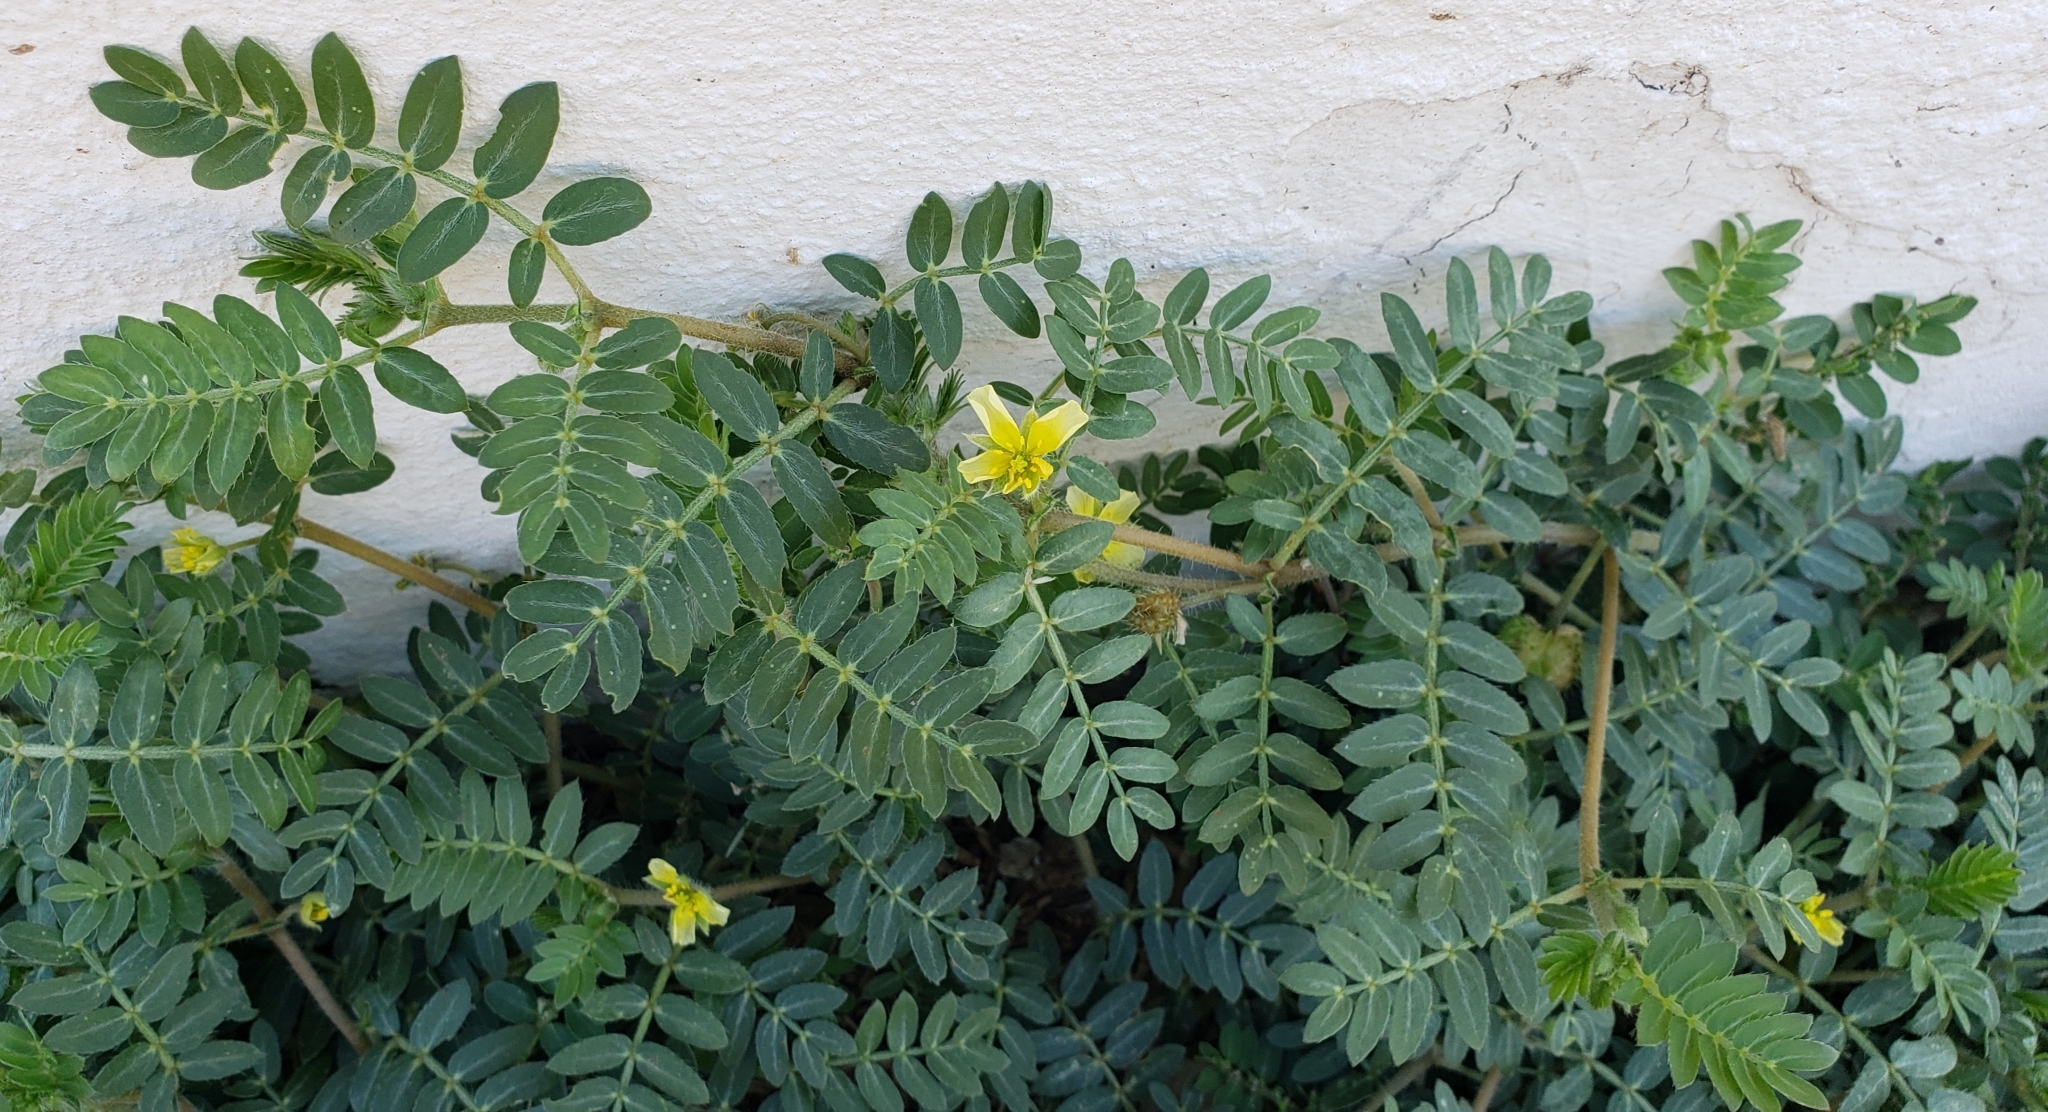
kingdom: Plantae
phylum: Tracheophyta
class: Magnoliopsida
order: Zygophyllales
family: Zygophyllaceae
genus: Tribulus
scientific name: Tribulus terrestris
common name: Puncturevine
